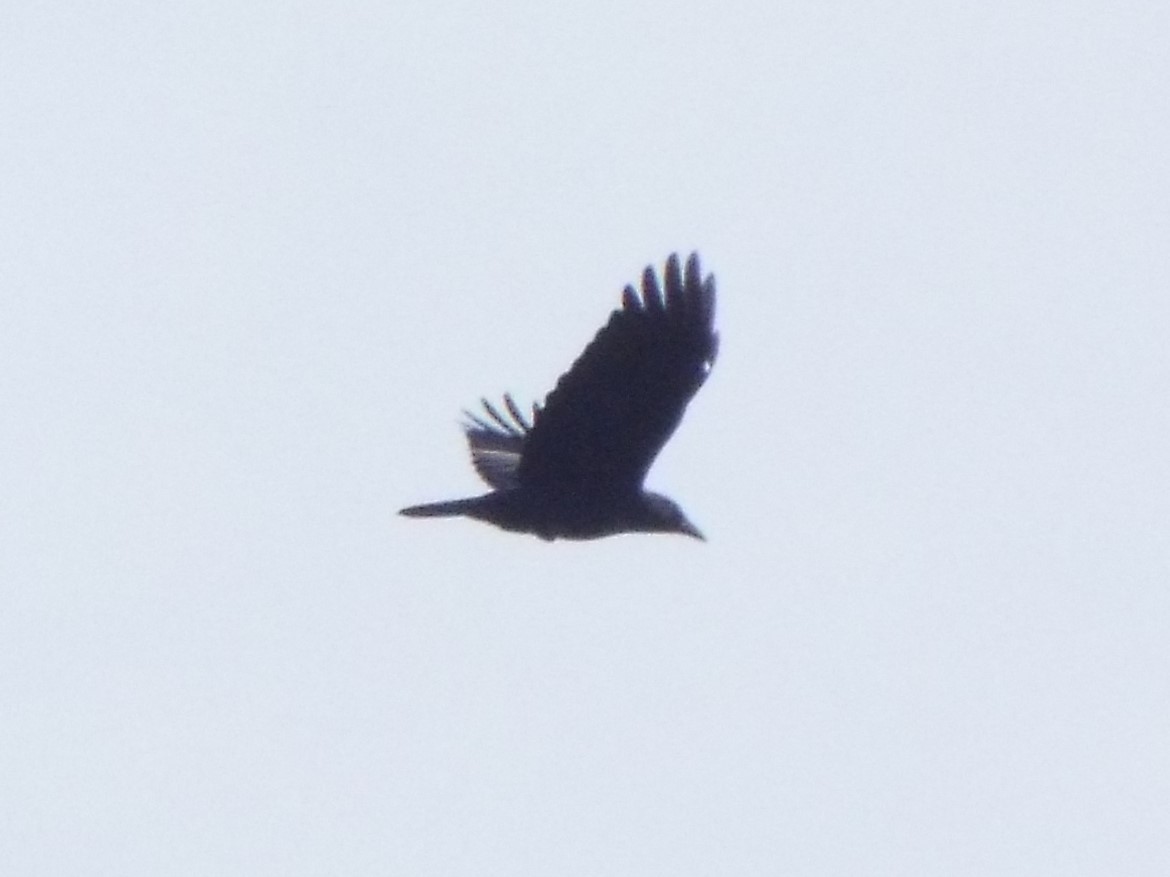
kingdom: Animalia
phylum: Chordata
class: Aves
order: Passeriformes
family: Corvidae
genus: Corvus
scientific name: Corvus brachyrhynchos
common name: American crow
